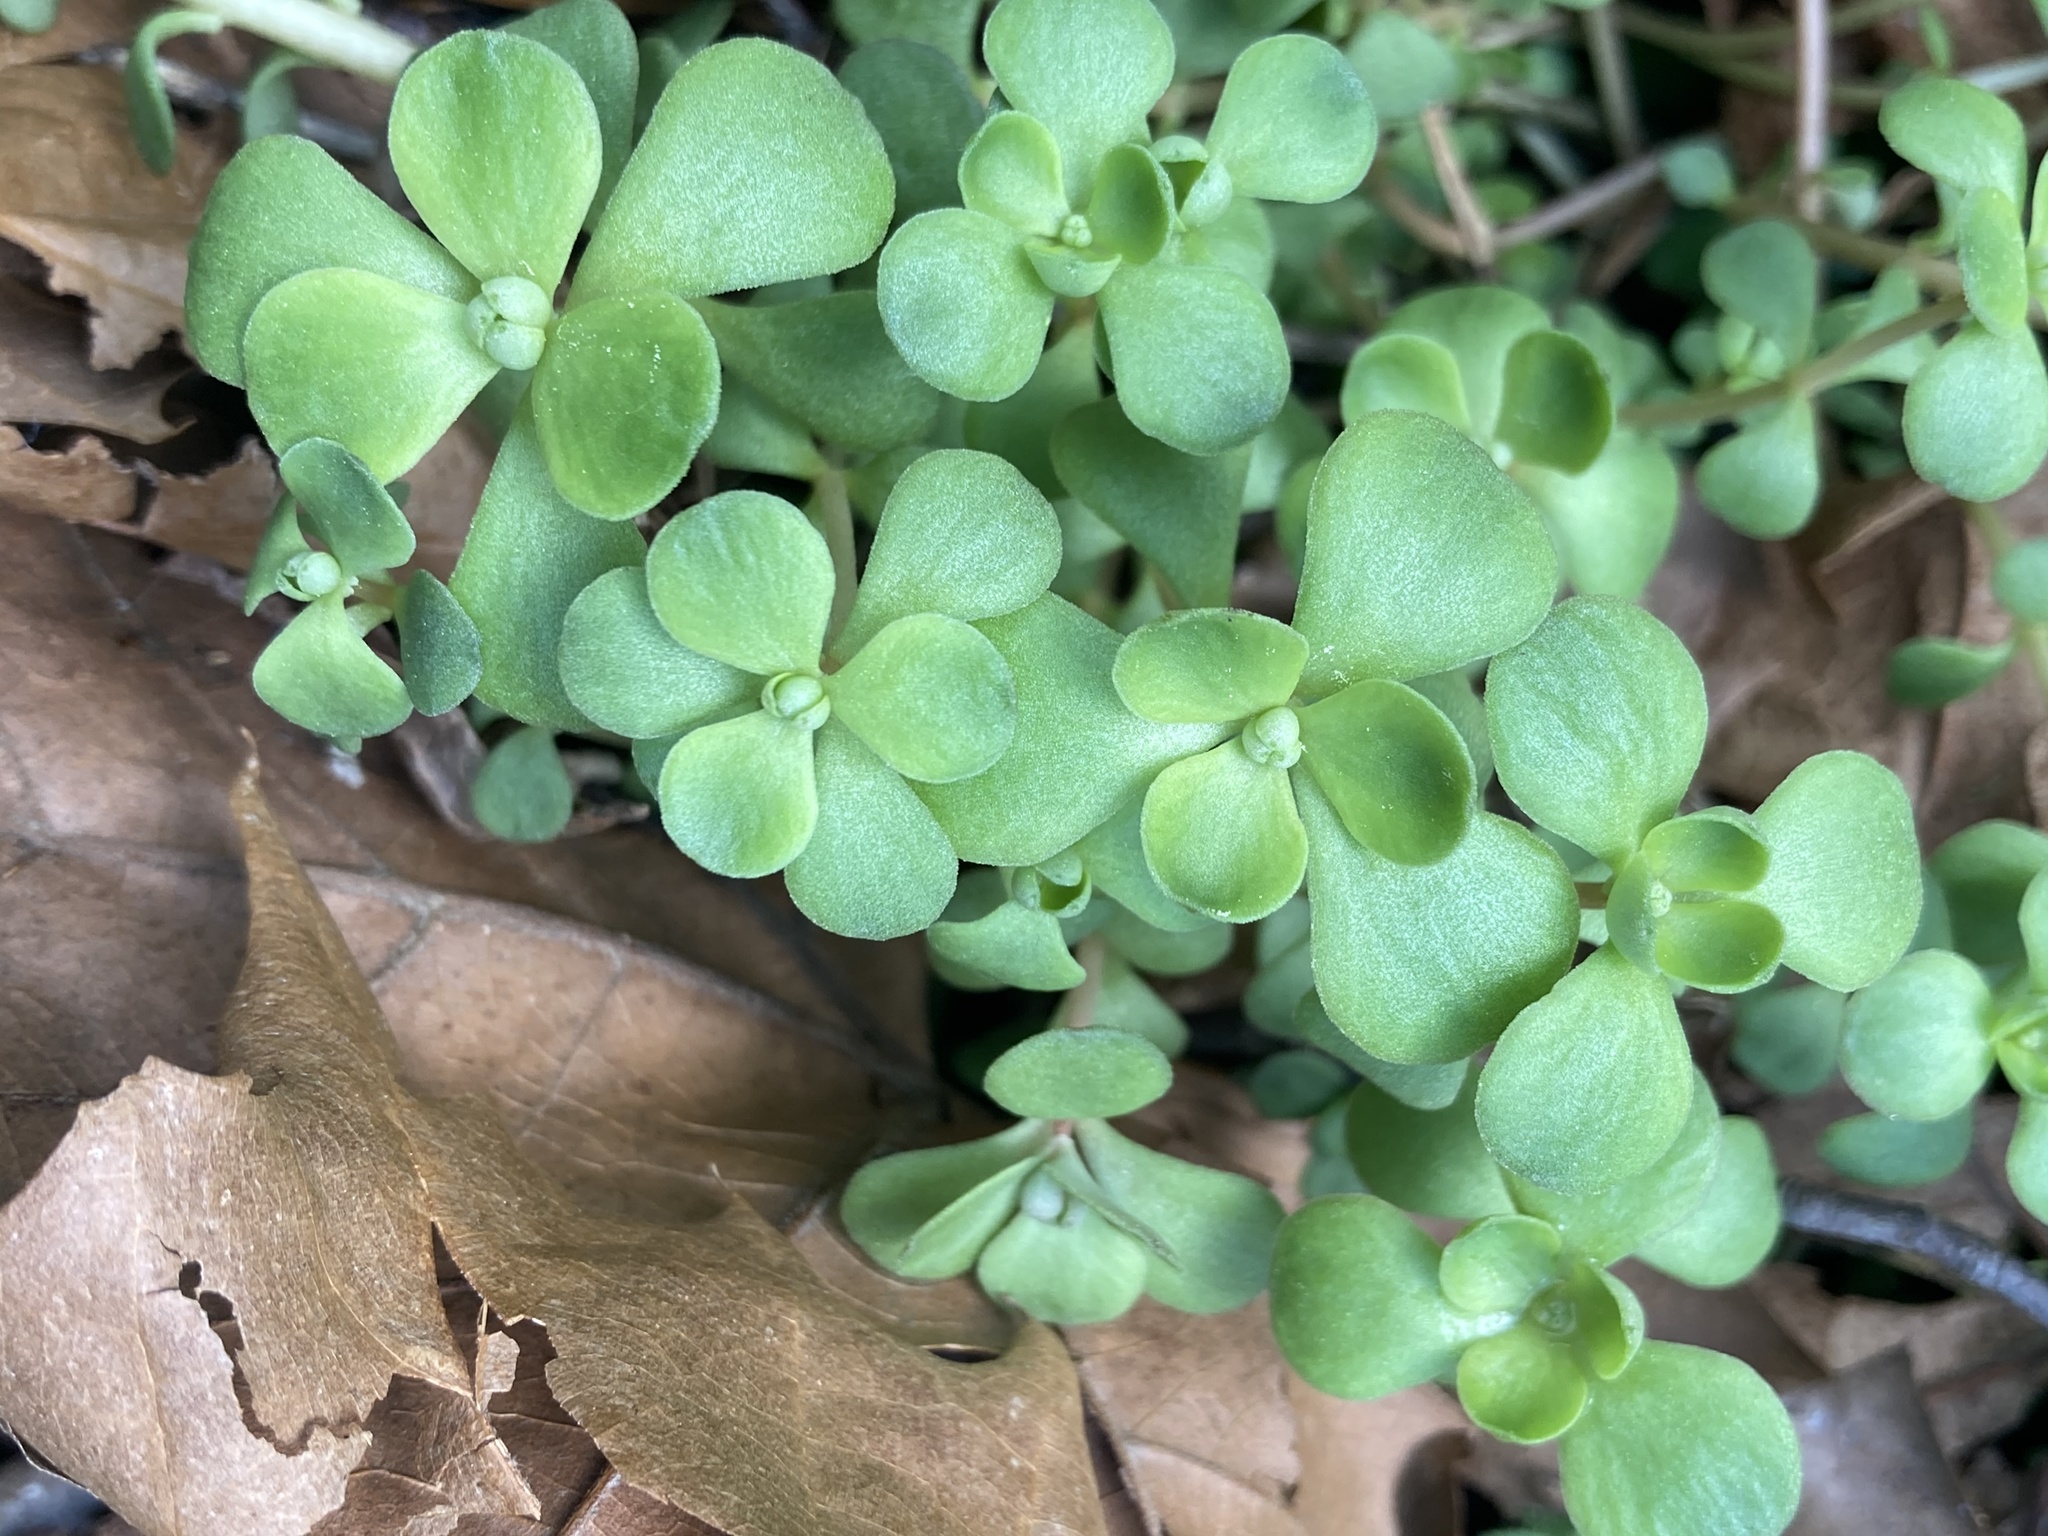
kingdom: Plantae
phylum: Tracheophyta
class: Magnoliopsida
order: Saxifragales
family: Crassulaceae
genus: Sedum
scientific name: Sedum ternatum
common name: Wild stonecrop
